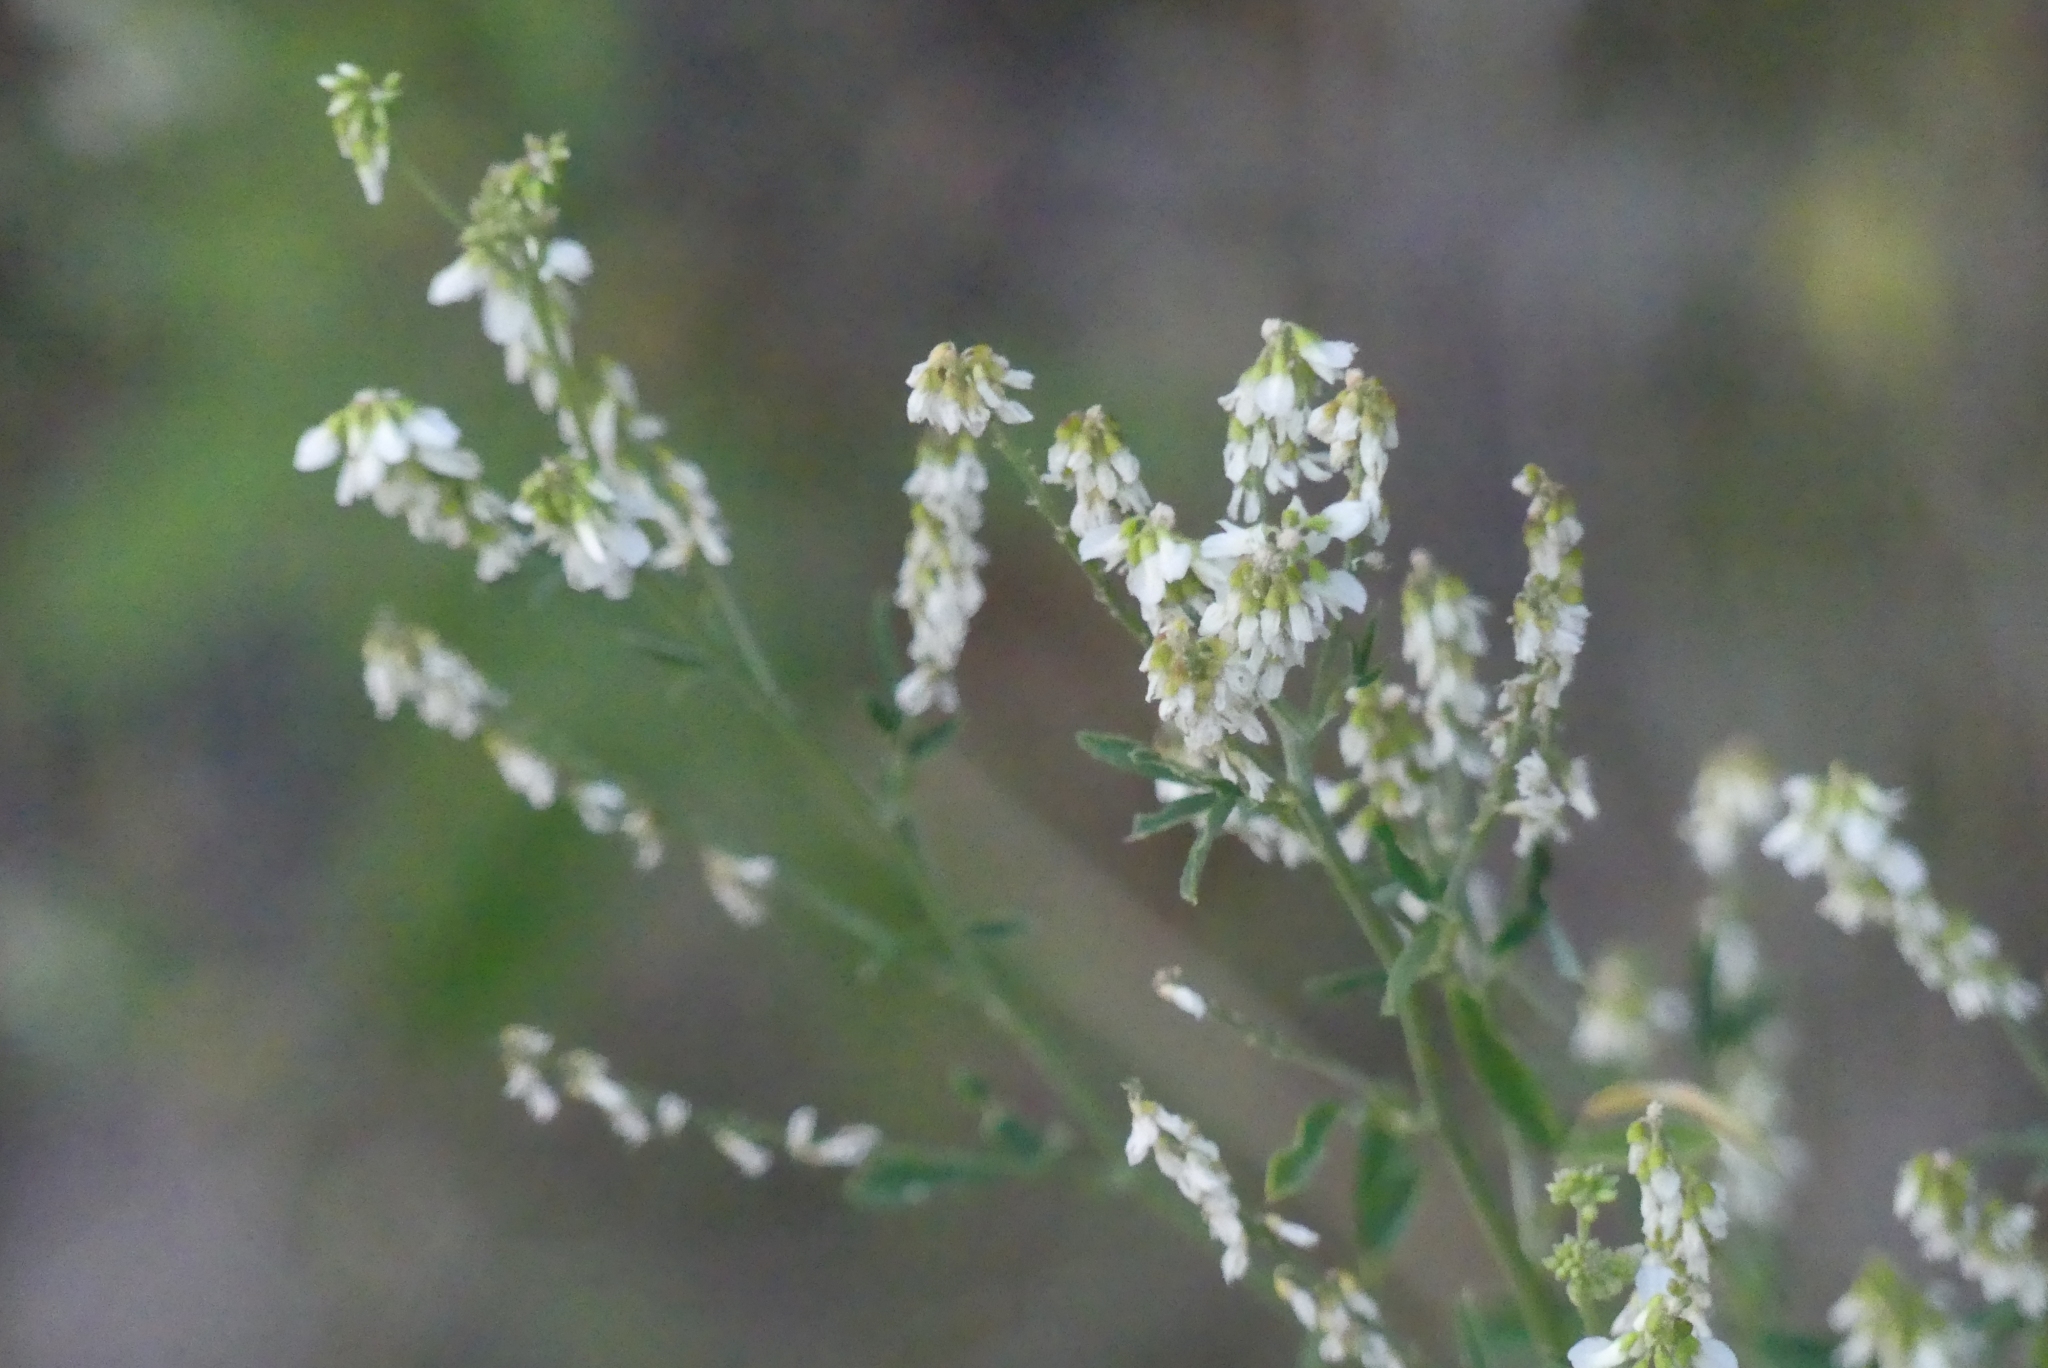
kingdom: Plantae
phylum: Tracheophyta
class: Magnoliopsida
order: Fabales
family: Fabaceae
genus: Melilotus
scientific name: Melilotus albus
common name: White melilot
